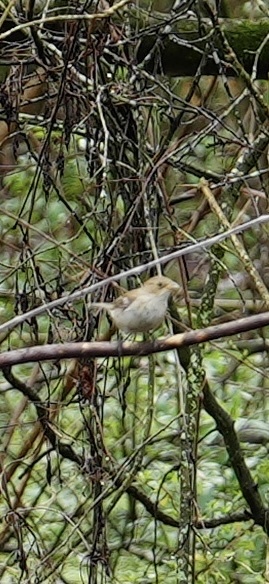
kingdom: Animalia
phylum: Chordata
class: Aves
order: Passeriformes
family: Passeridae
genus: Passer
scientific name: Passer domesticus
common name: House sparrow
